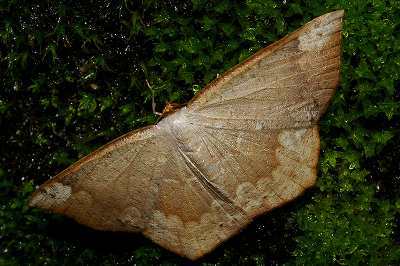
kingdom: Animalia
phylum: Arthropoda
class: Insecta
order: Lepidoptera
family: Geometridae
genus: Peratostega
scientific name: Peratostega deletaria
